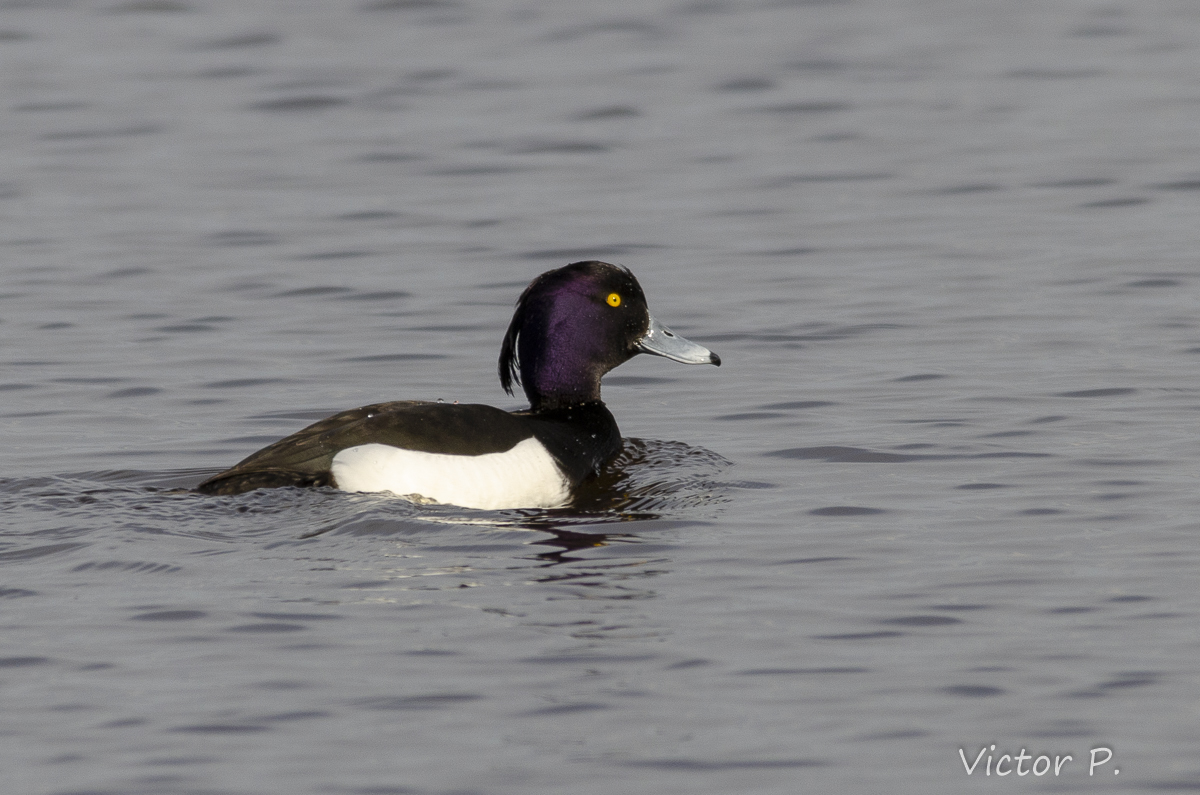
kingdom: Animalia
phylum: Chordata
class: Aves
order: Anseriformes
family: Anatidae
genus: Aythya
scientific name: Aythya fuligula
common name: Tufted duck
